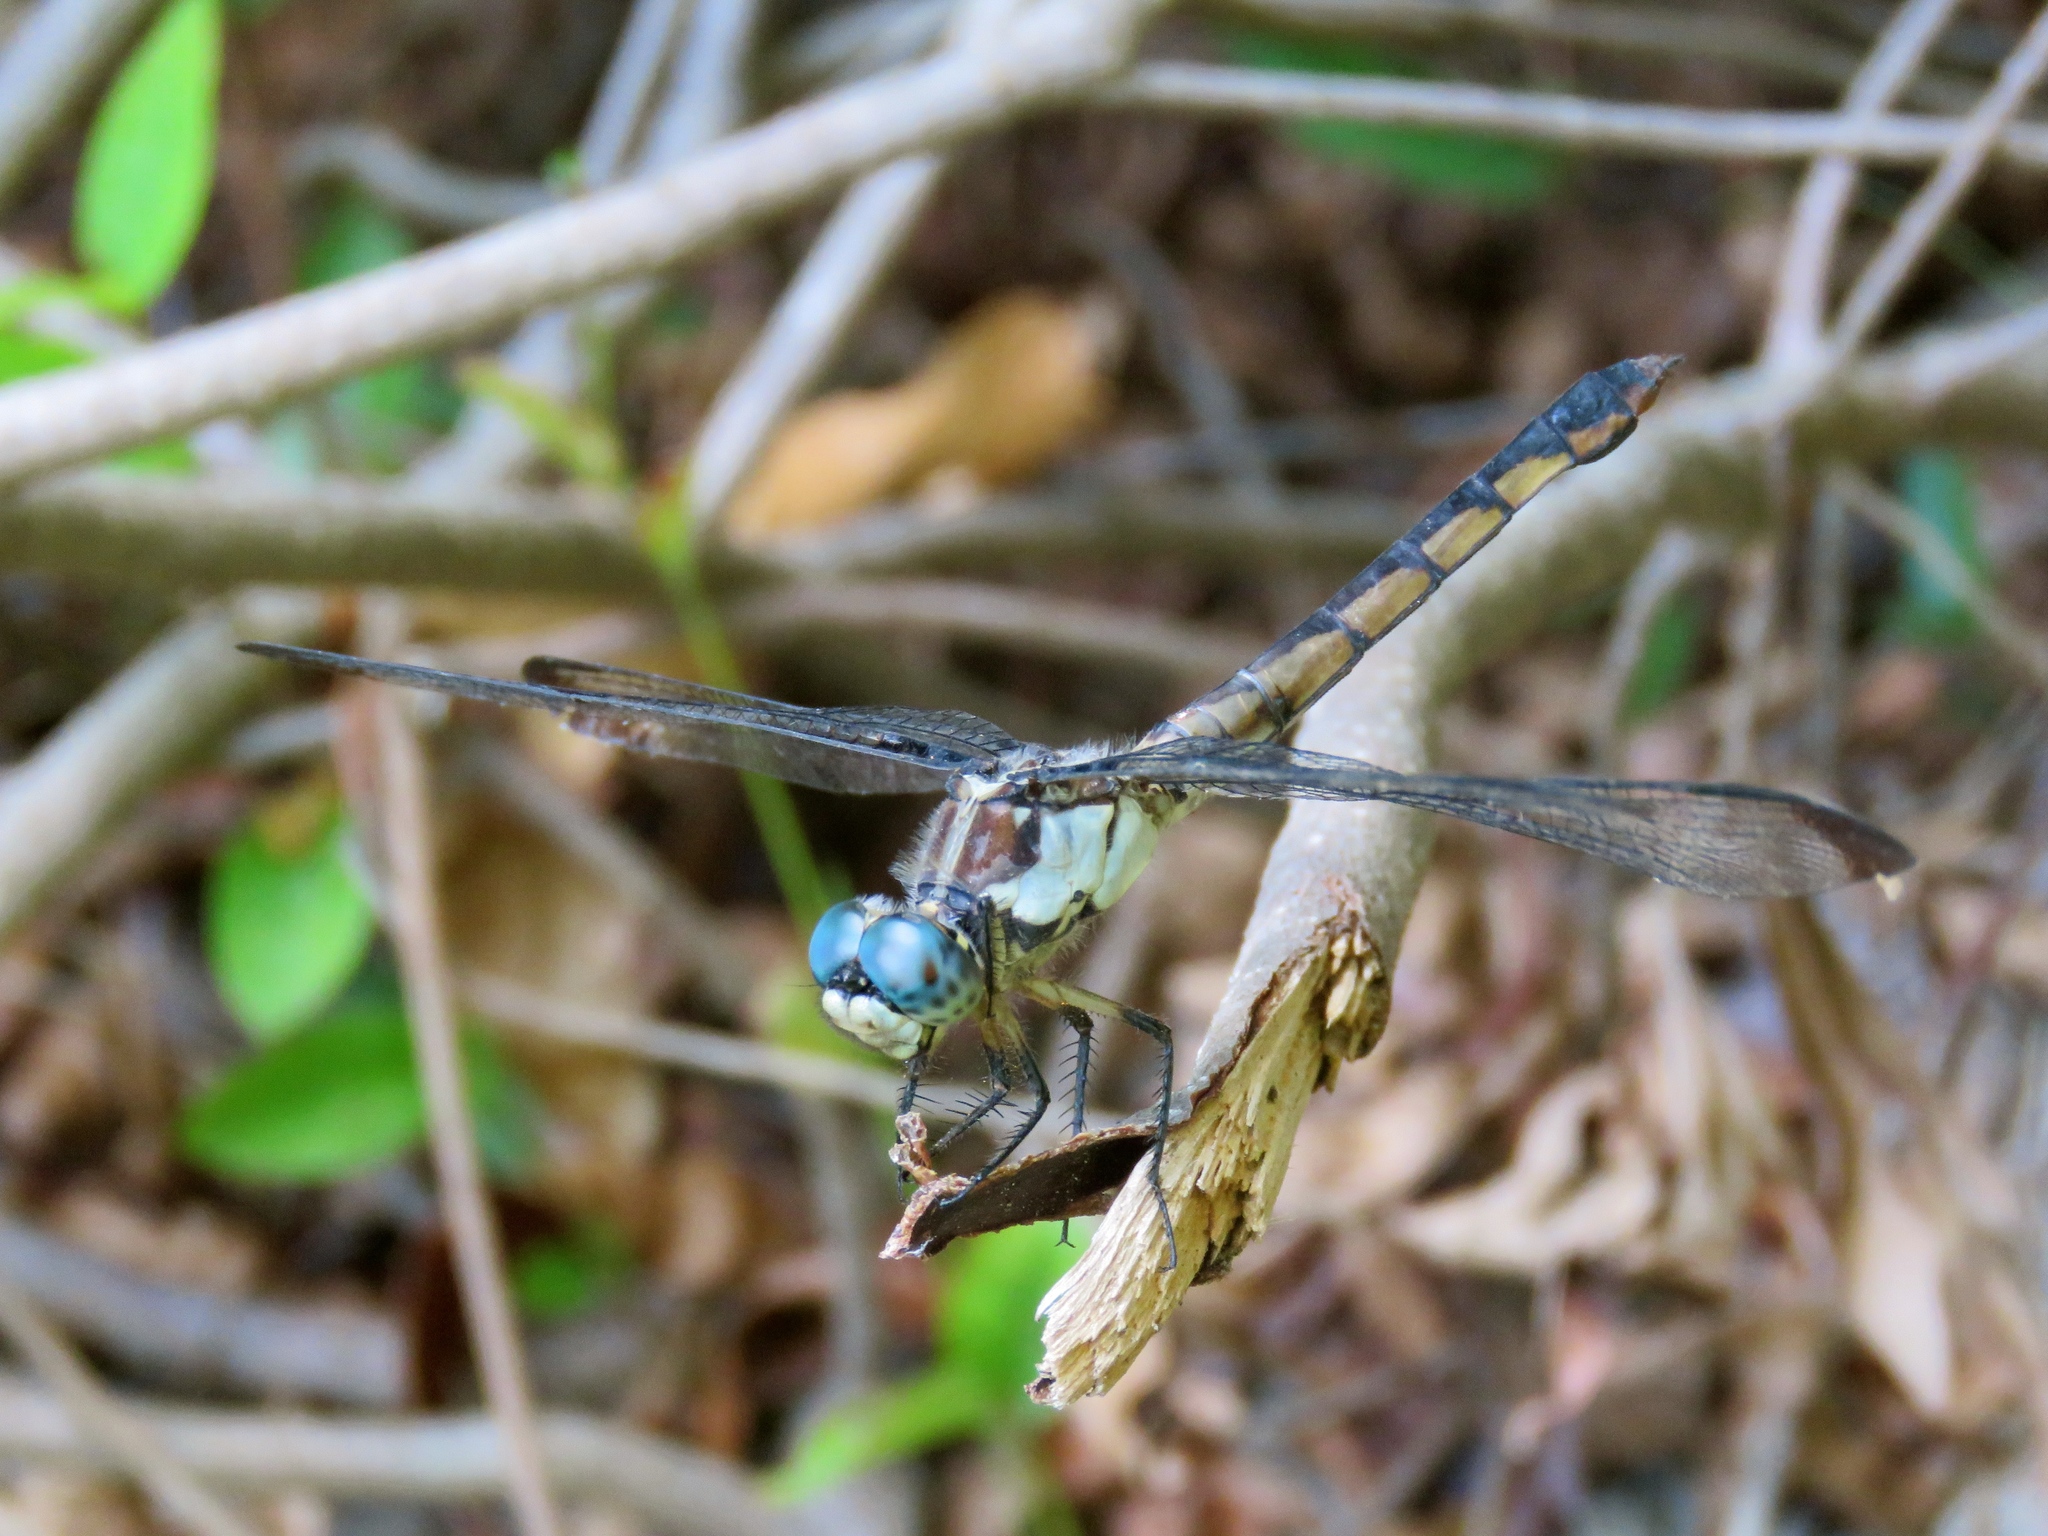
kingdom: Animalia
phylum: Arthropoda
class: Insecta
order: Odonata
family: Libellulidae
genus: Libellula
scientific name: Libellula vibrans
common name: Great blue skimmer
